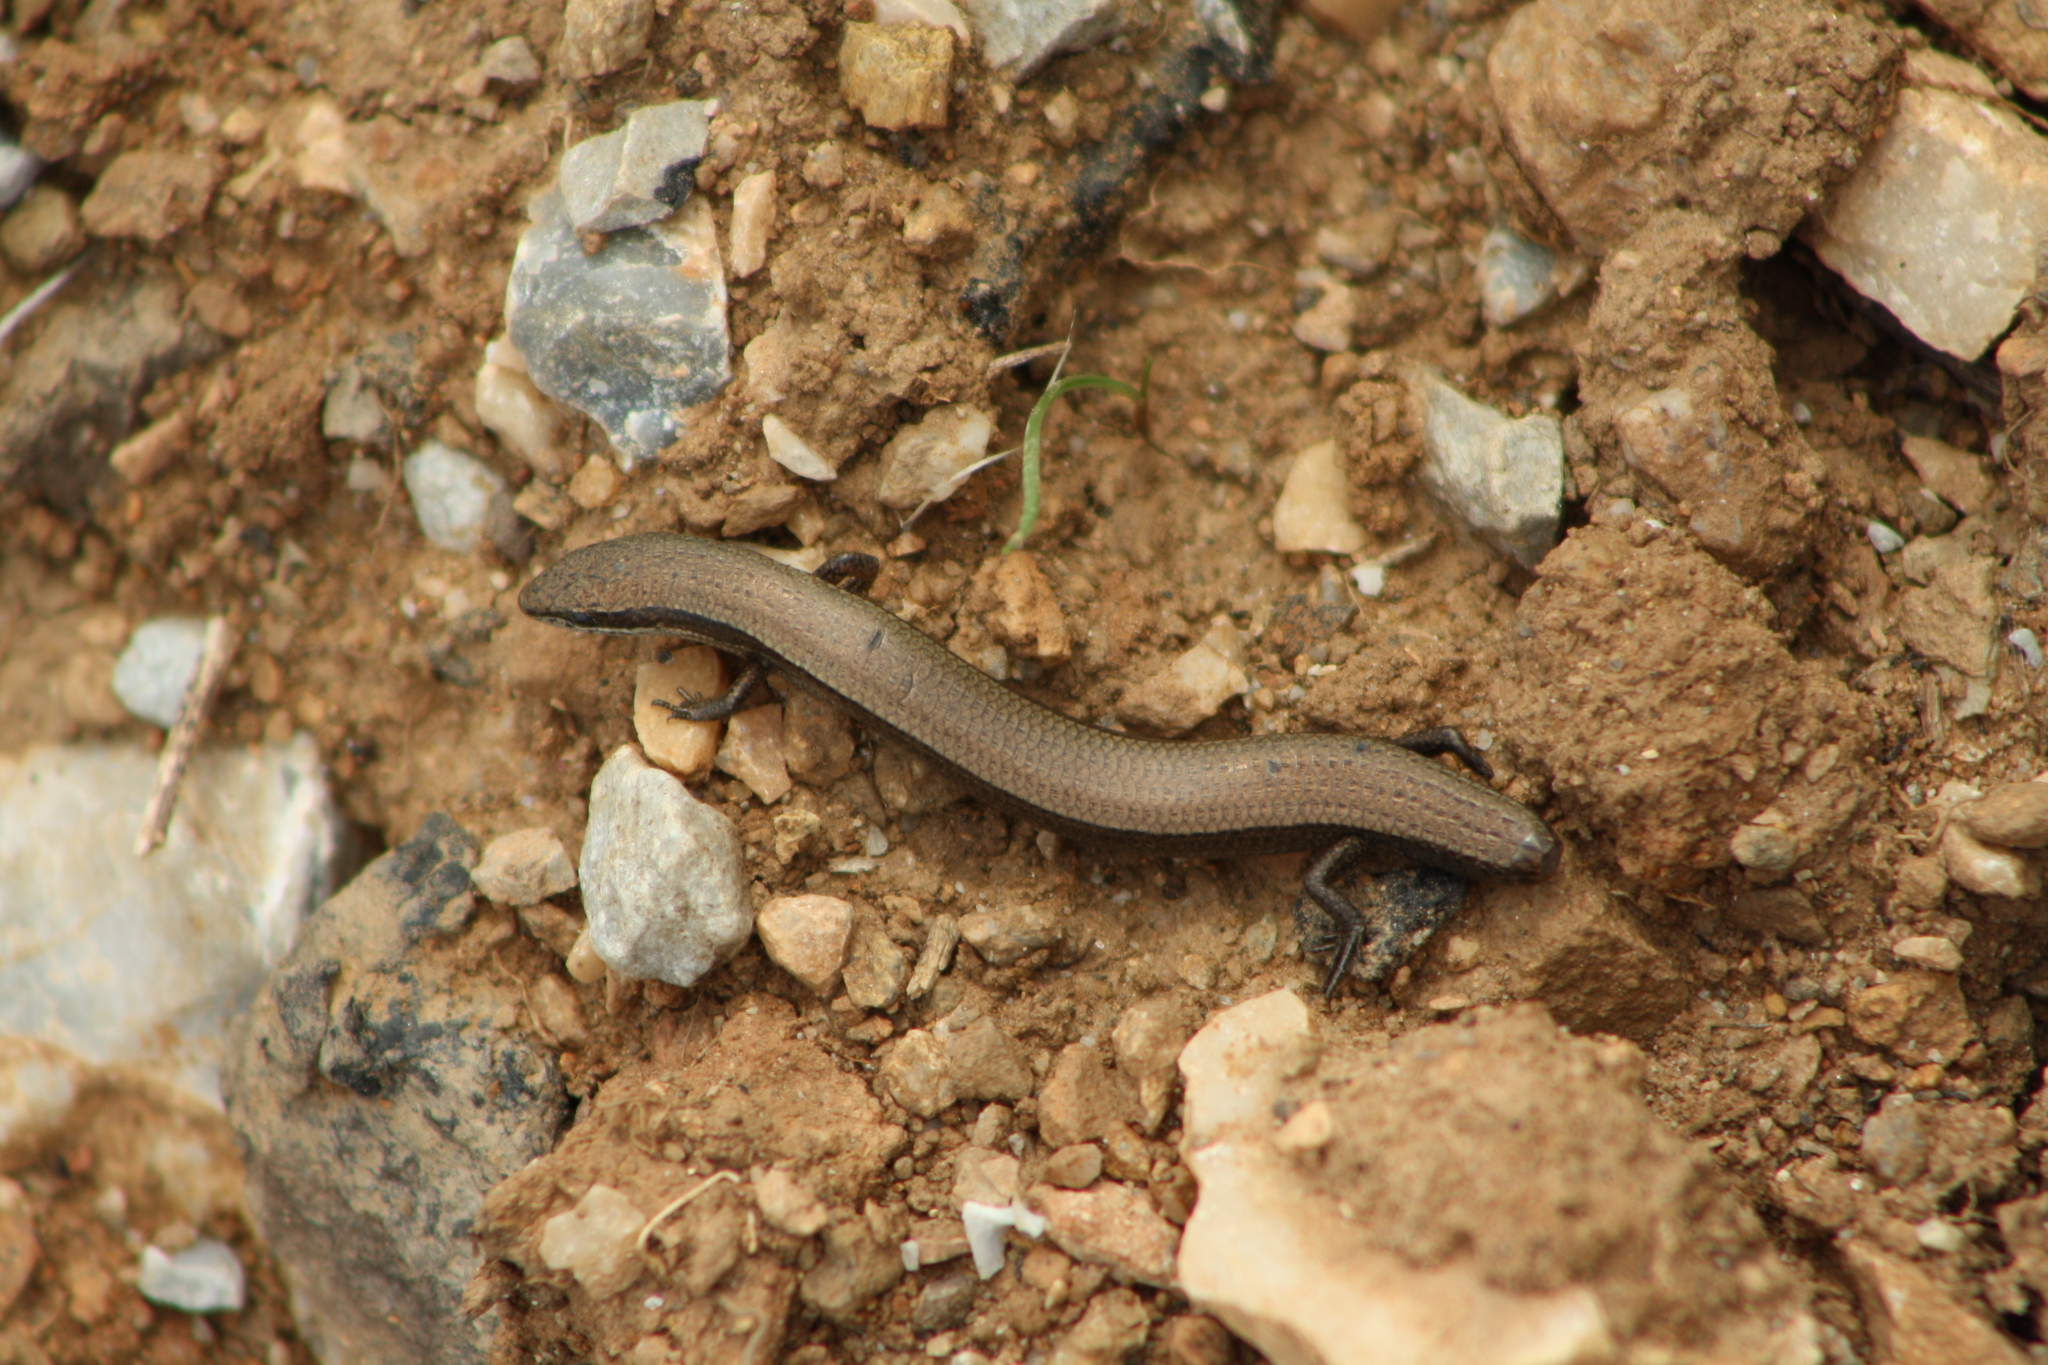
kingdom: Animalia
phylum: Chordata
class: Squamata
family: Scincidae
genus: Ablepharus
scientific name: Ablepharus kitaibelii
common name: Juniper skink
